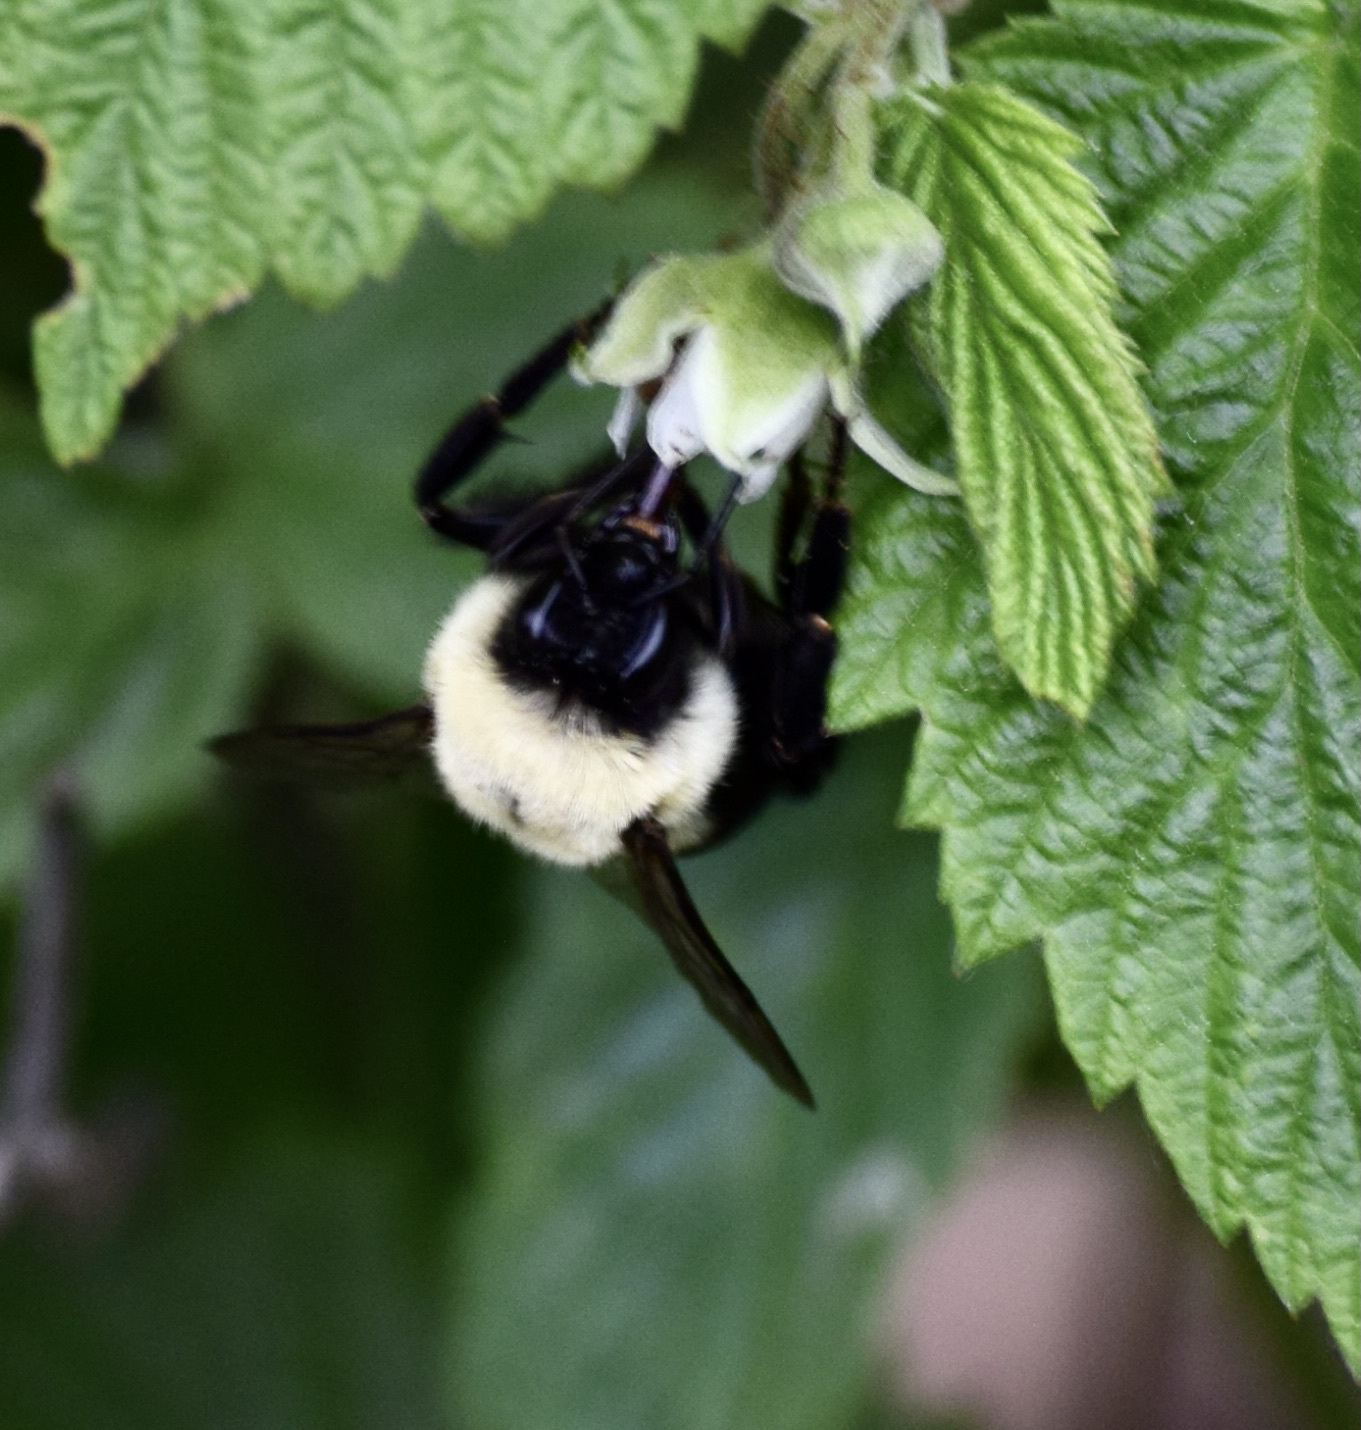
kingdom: Animalia
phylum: Arthropoda
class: Insecta
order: Hymenoptera
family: Apidae
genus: Bombus
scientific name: Bombus impatiens
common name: Common eastern bumble bee
